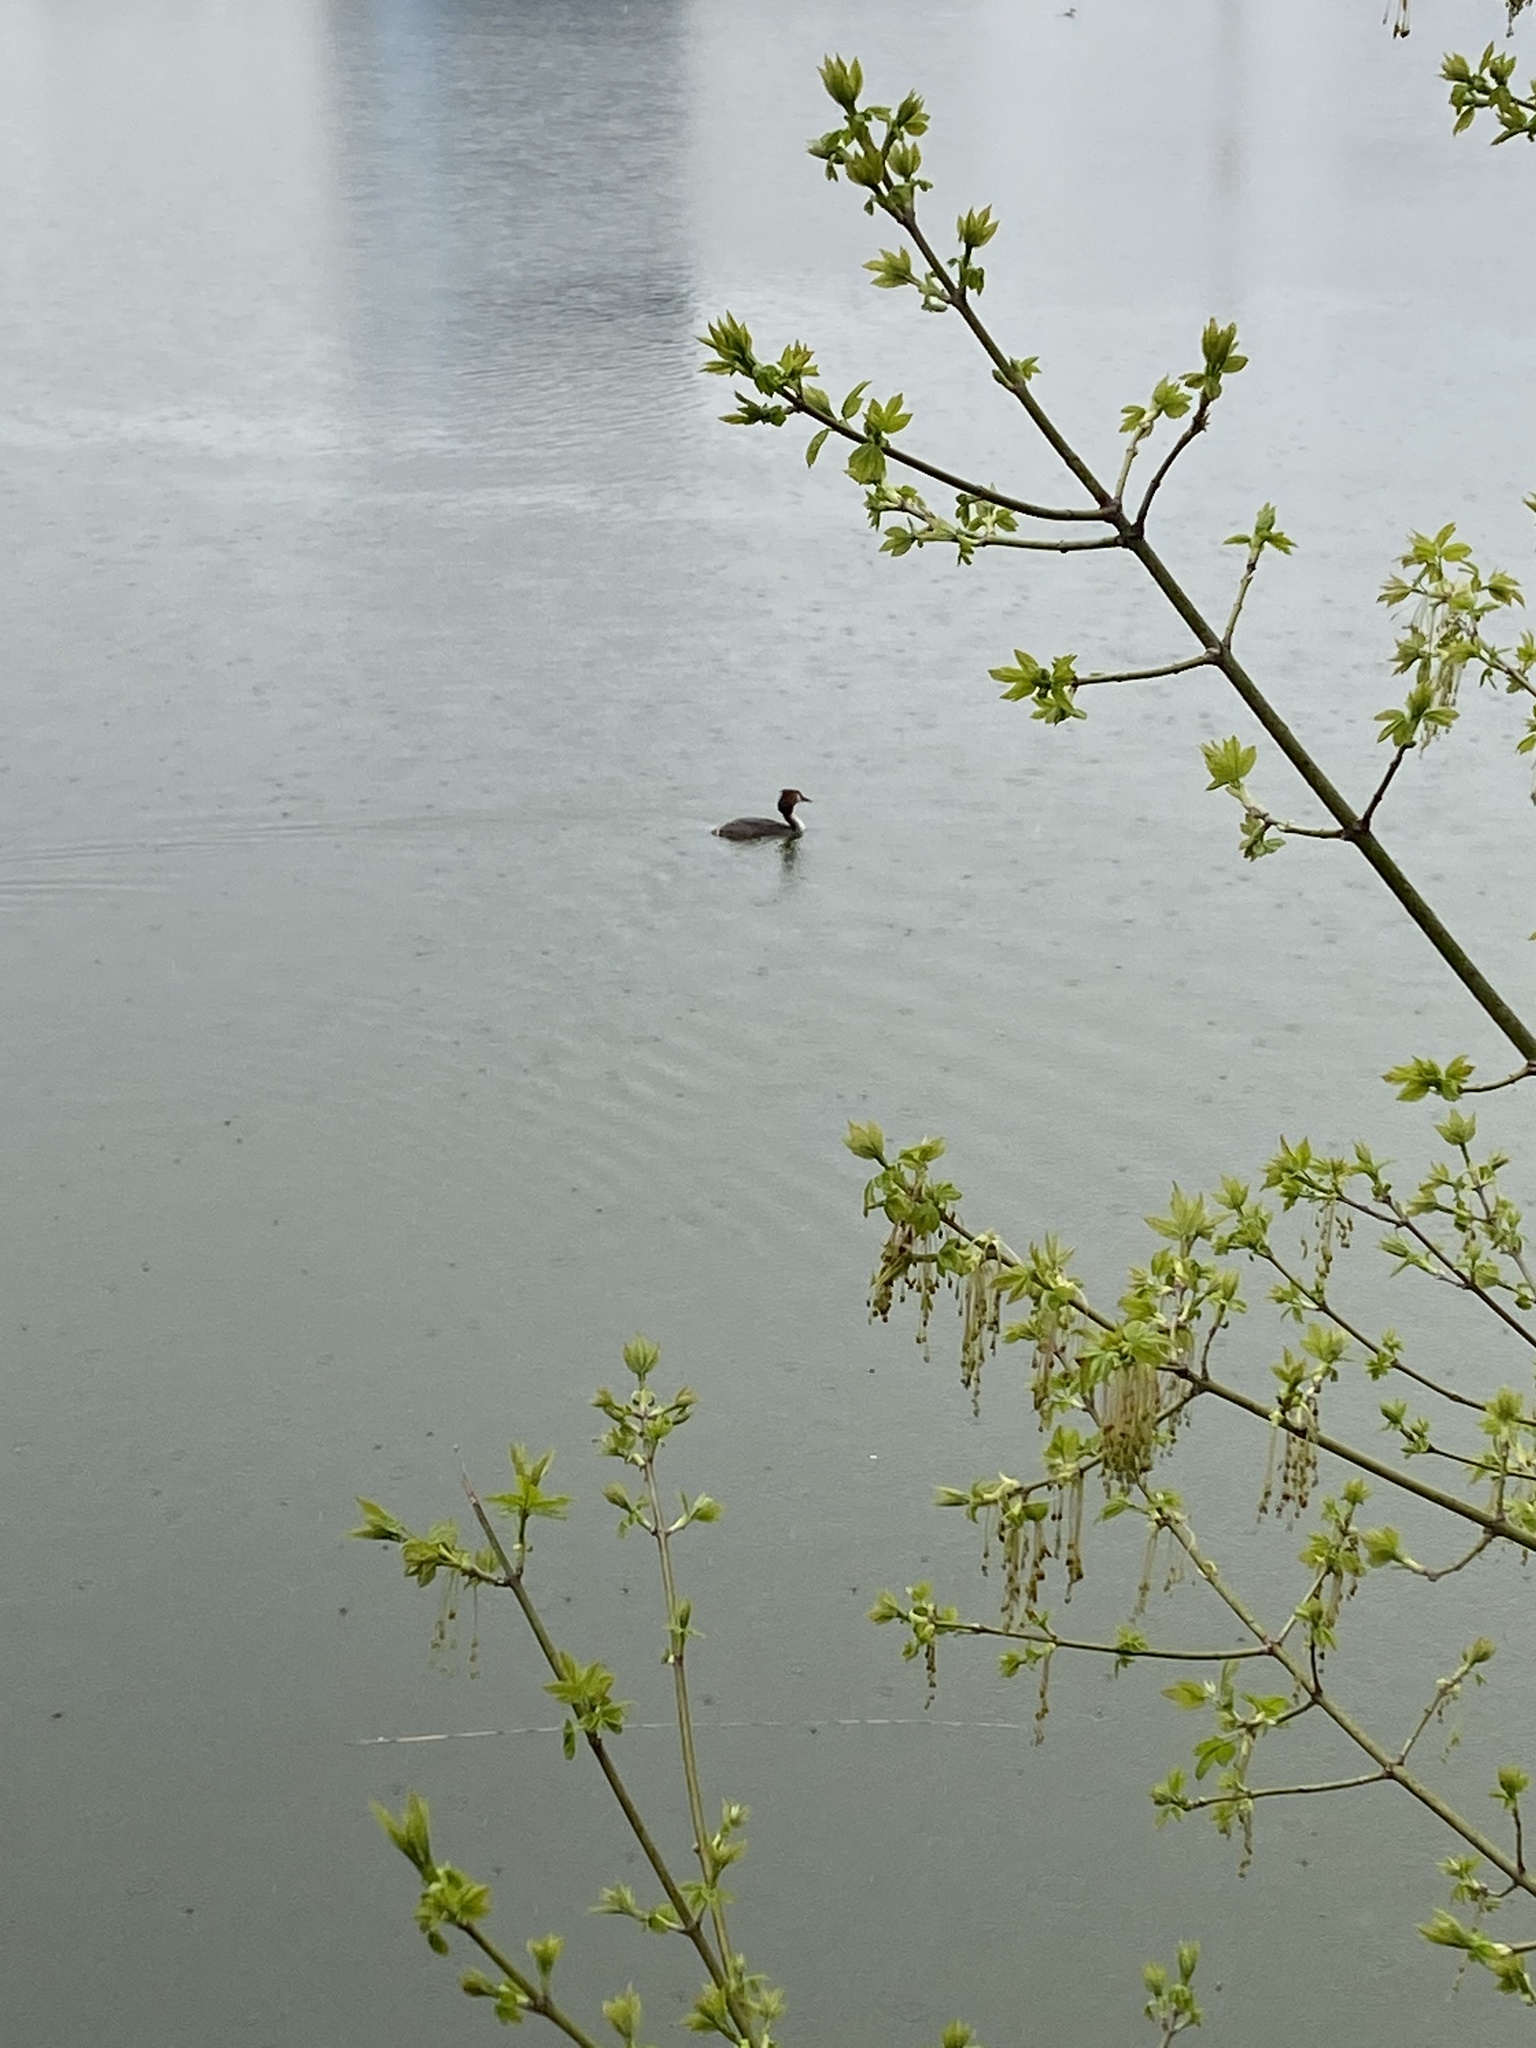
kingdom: Animalia
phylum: Chordata
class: Aves
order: Podicipediformes
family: Podicipedidae
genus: Podiceps
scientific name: Podiceps cristatus
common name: Great crested grebe
